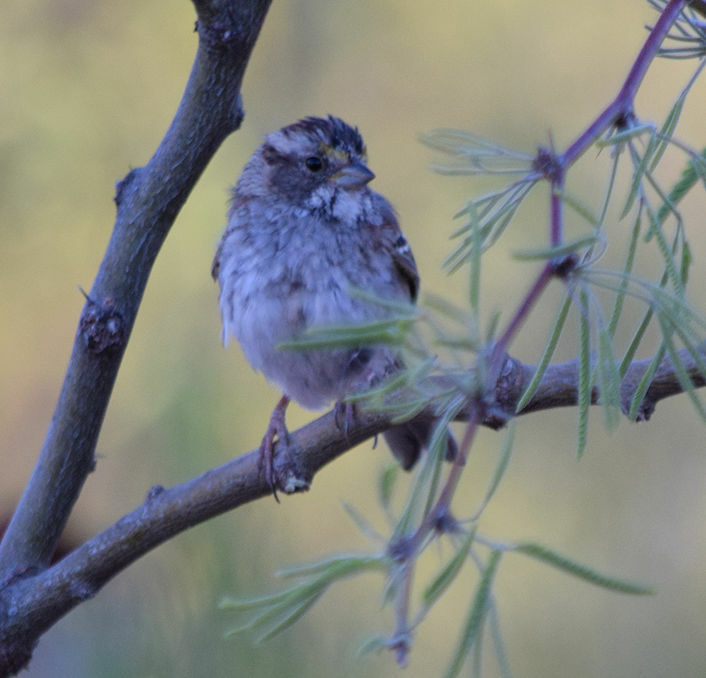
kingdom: Animalia
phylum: Chordata
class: Aves
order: Passeriformes
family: Passerellidae
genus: Zonotrichia
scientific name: Zonotrichia albicollis
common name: White-throated sparrow
